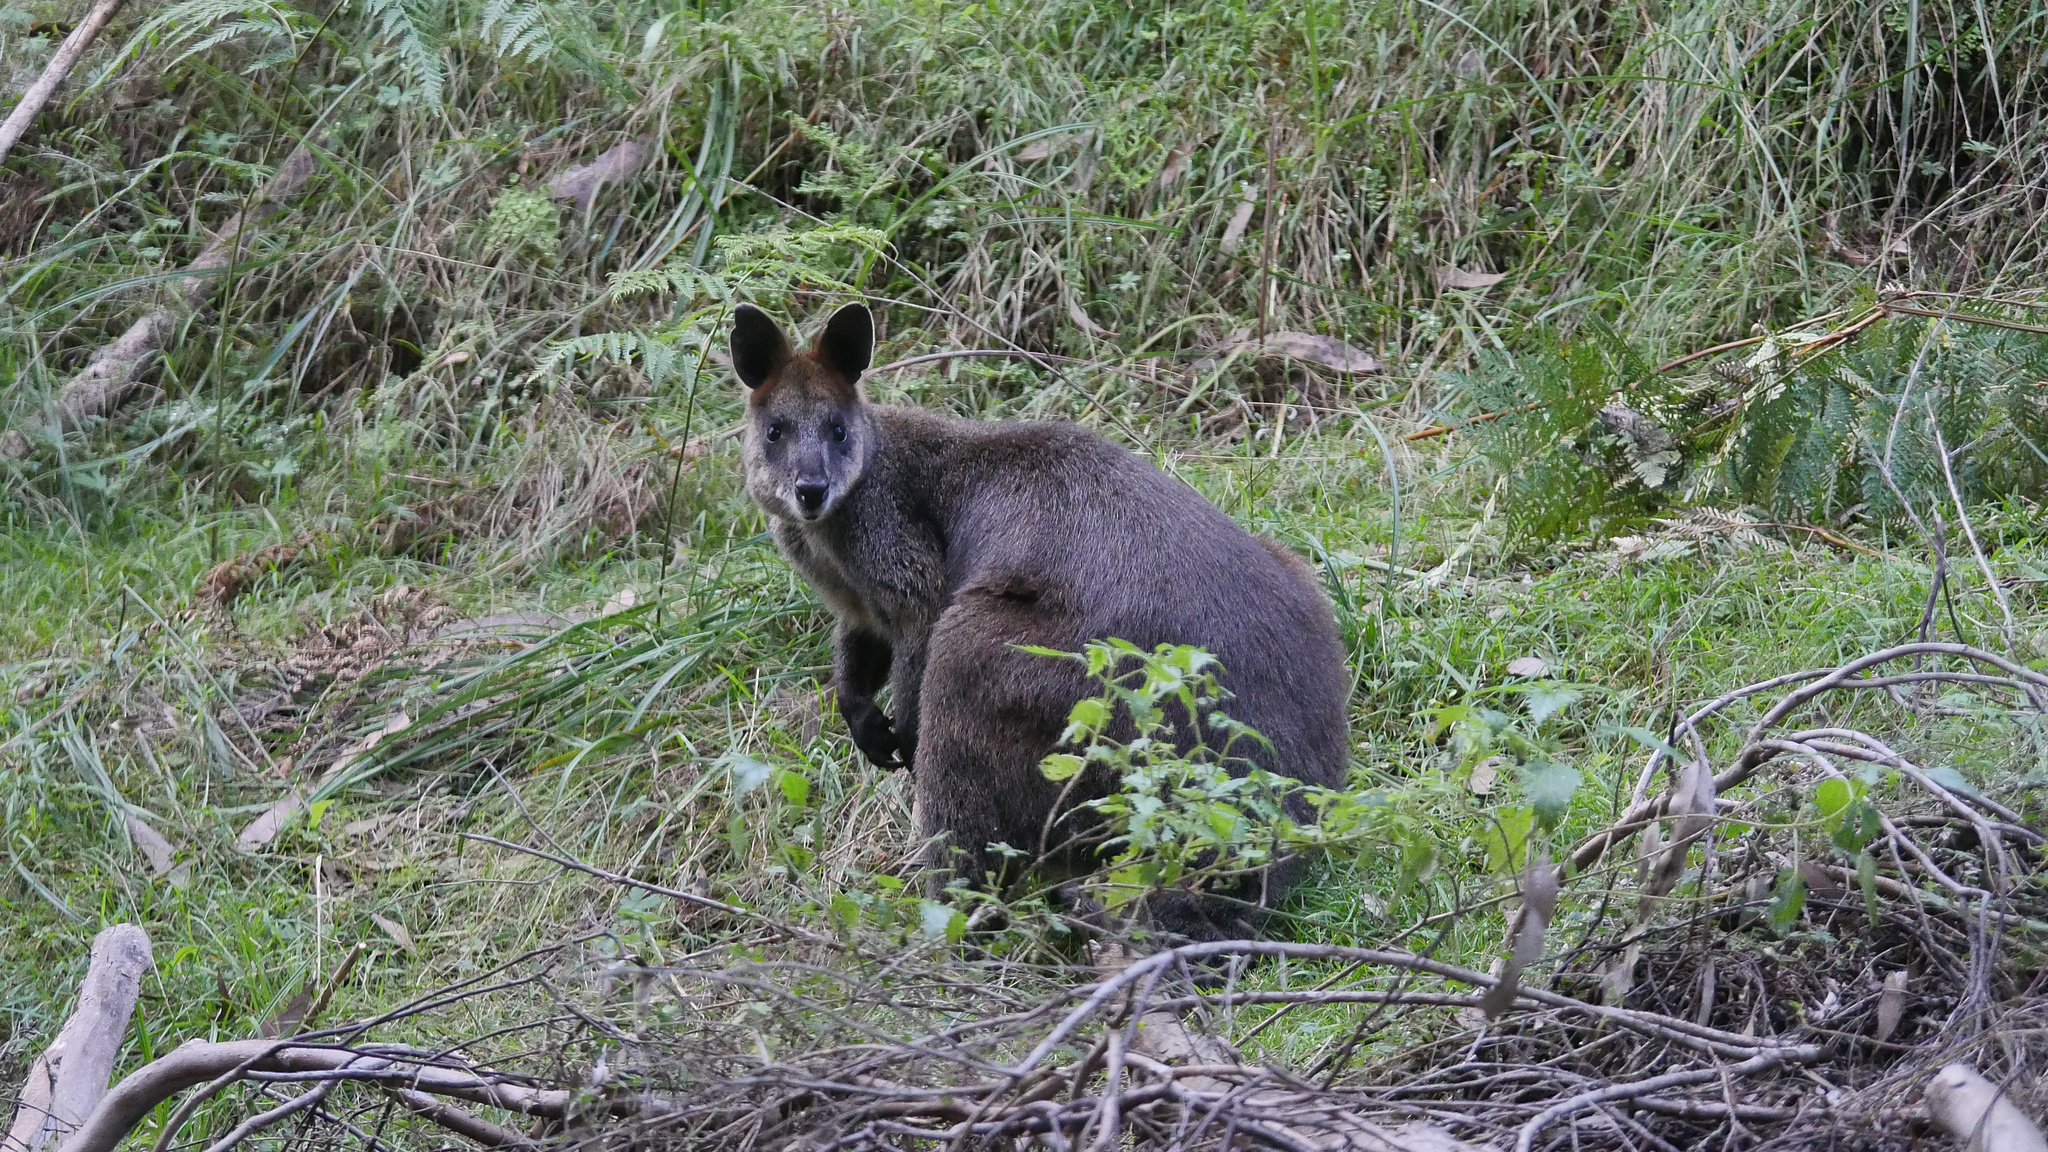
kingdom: Animalia
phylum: Chordata
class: Mammalia
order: Diprotodontia
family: Macropodidae
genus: Wallabia
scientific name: Wallabia bicolor
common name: Swamp wallaby
